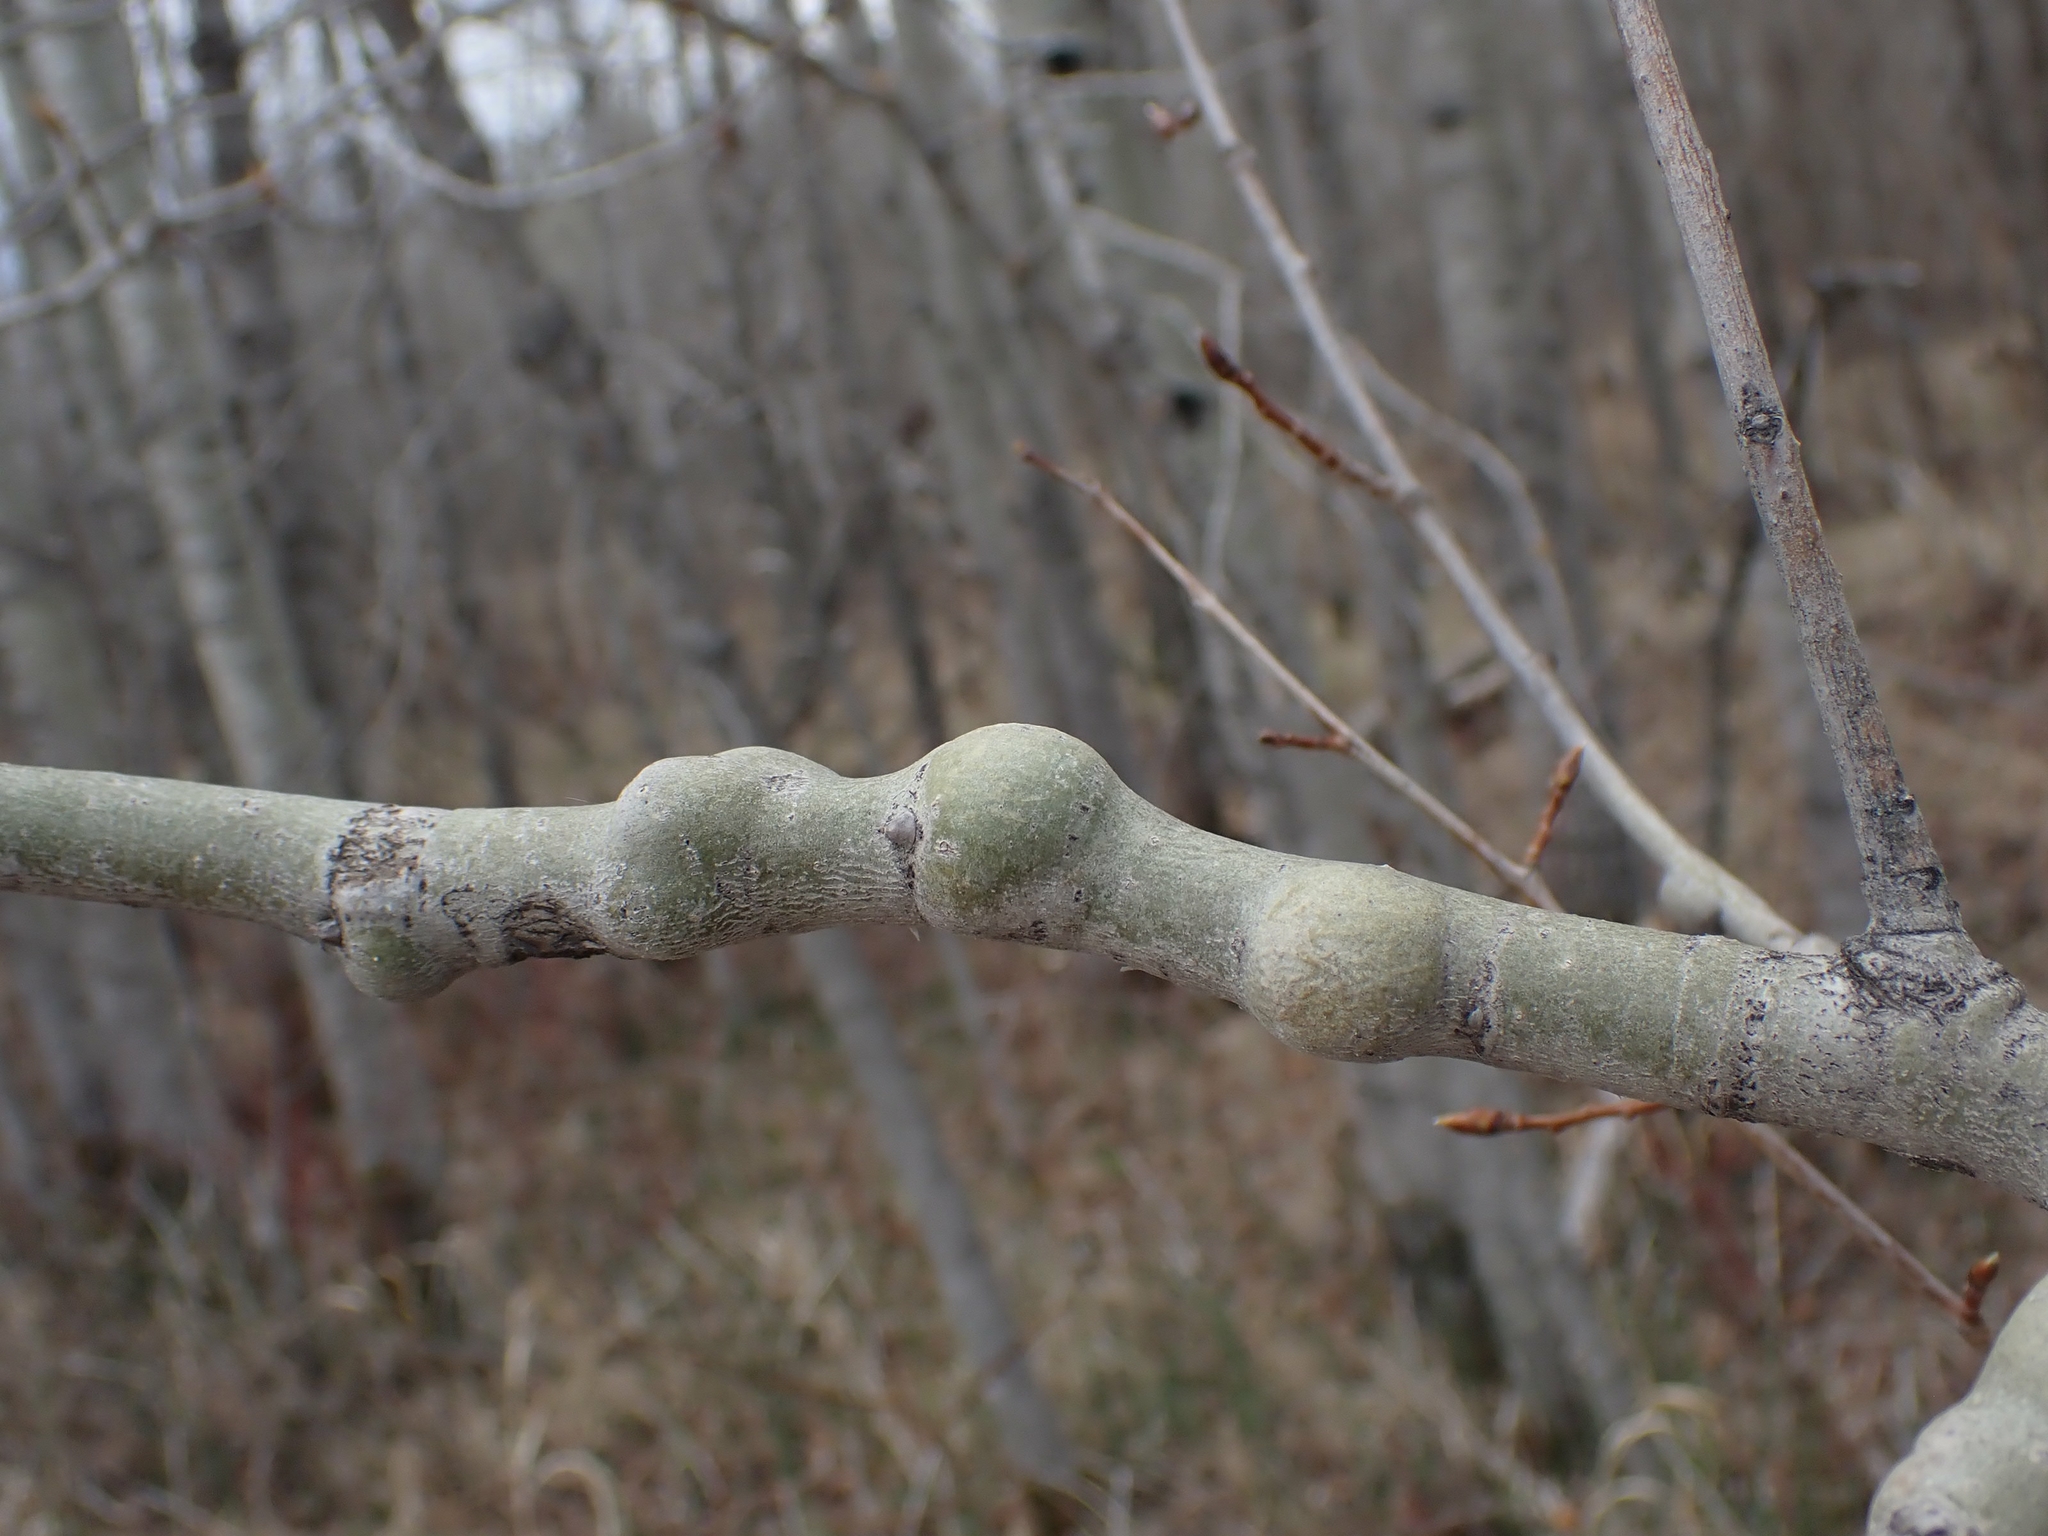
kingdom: Animalia
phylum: Arthropoda
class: Insecta
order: Diptera
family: Agromyzidae
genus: Euhexomyza
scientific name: Euhexomyza schineri
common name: Poplar twiggall fly
